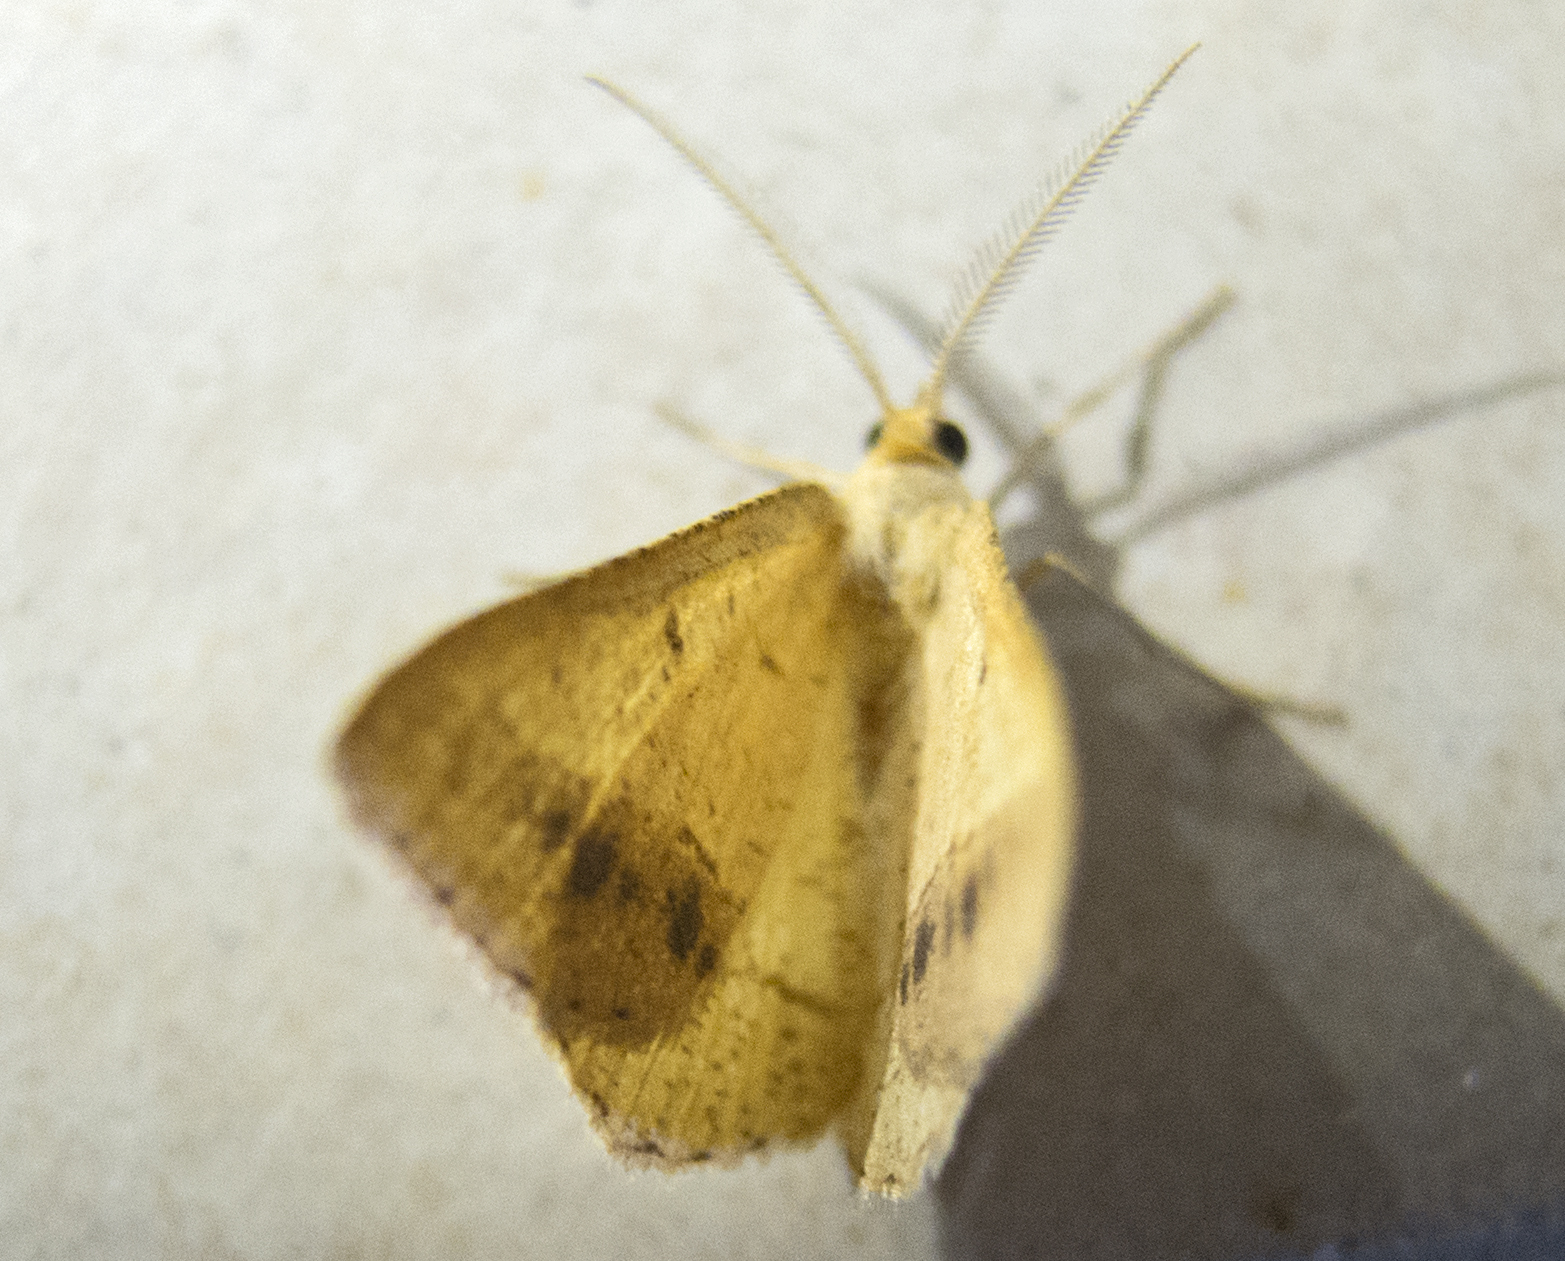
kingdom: Animalia
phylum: Arthropoda
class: Insecta
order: Lepidoptera
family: Geometridae
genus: Tephrina
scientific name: Tephrina arenacearia
